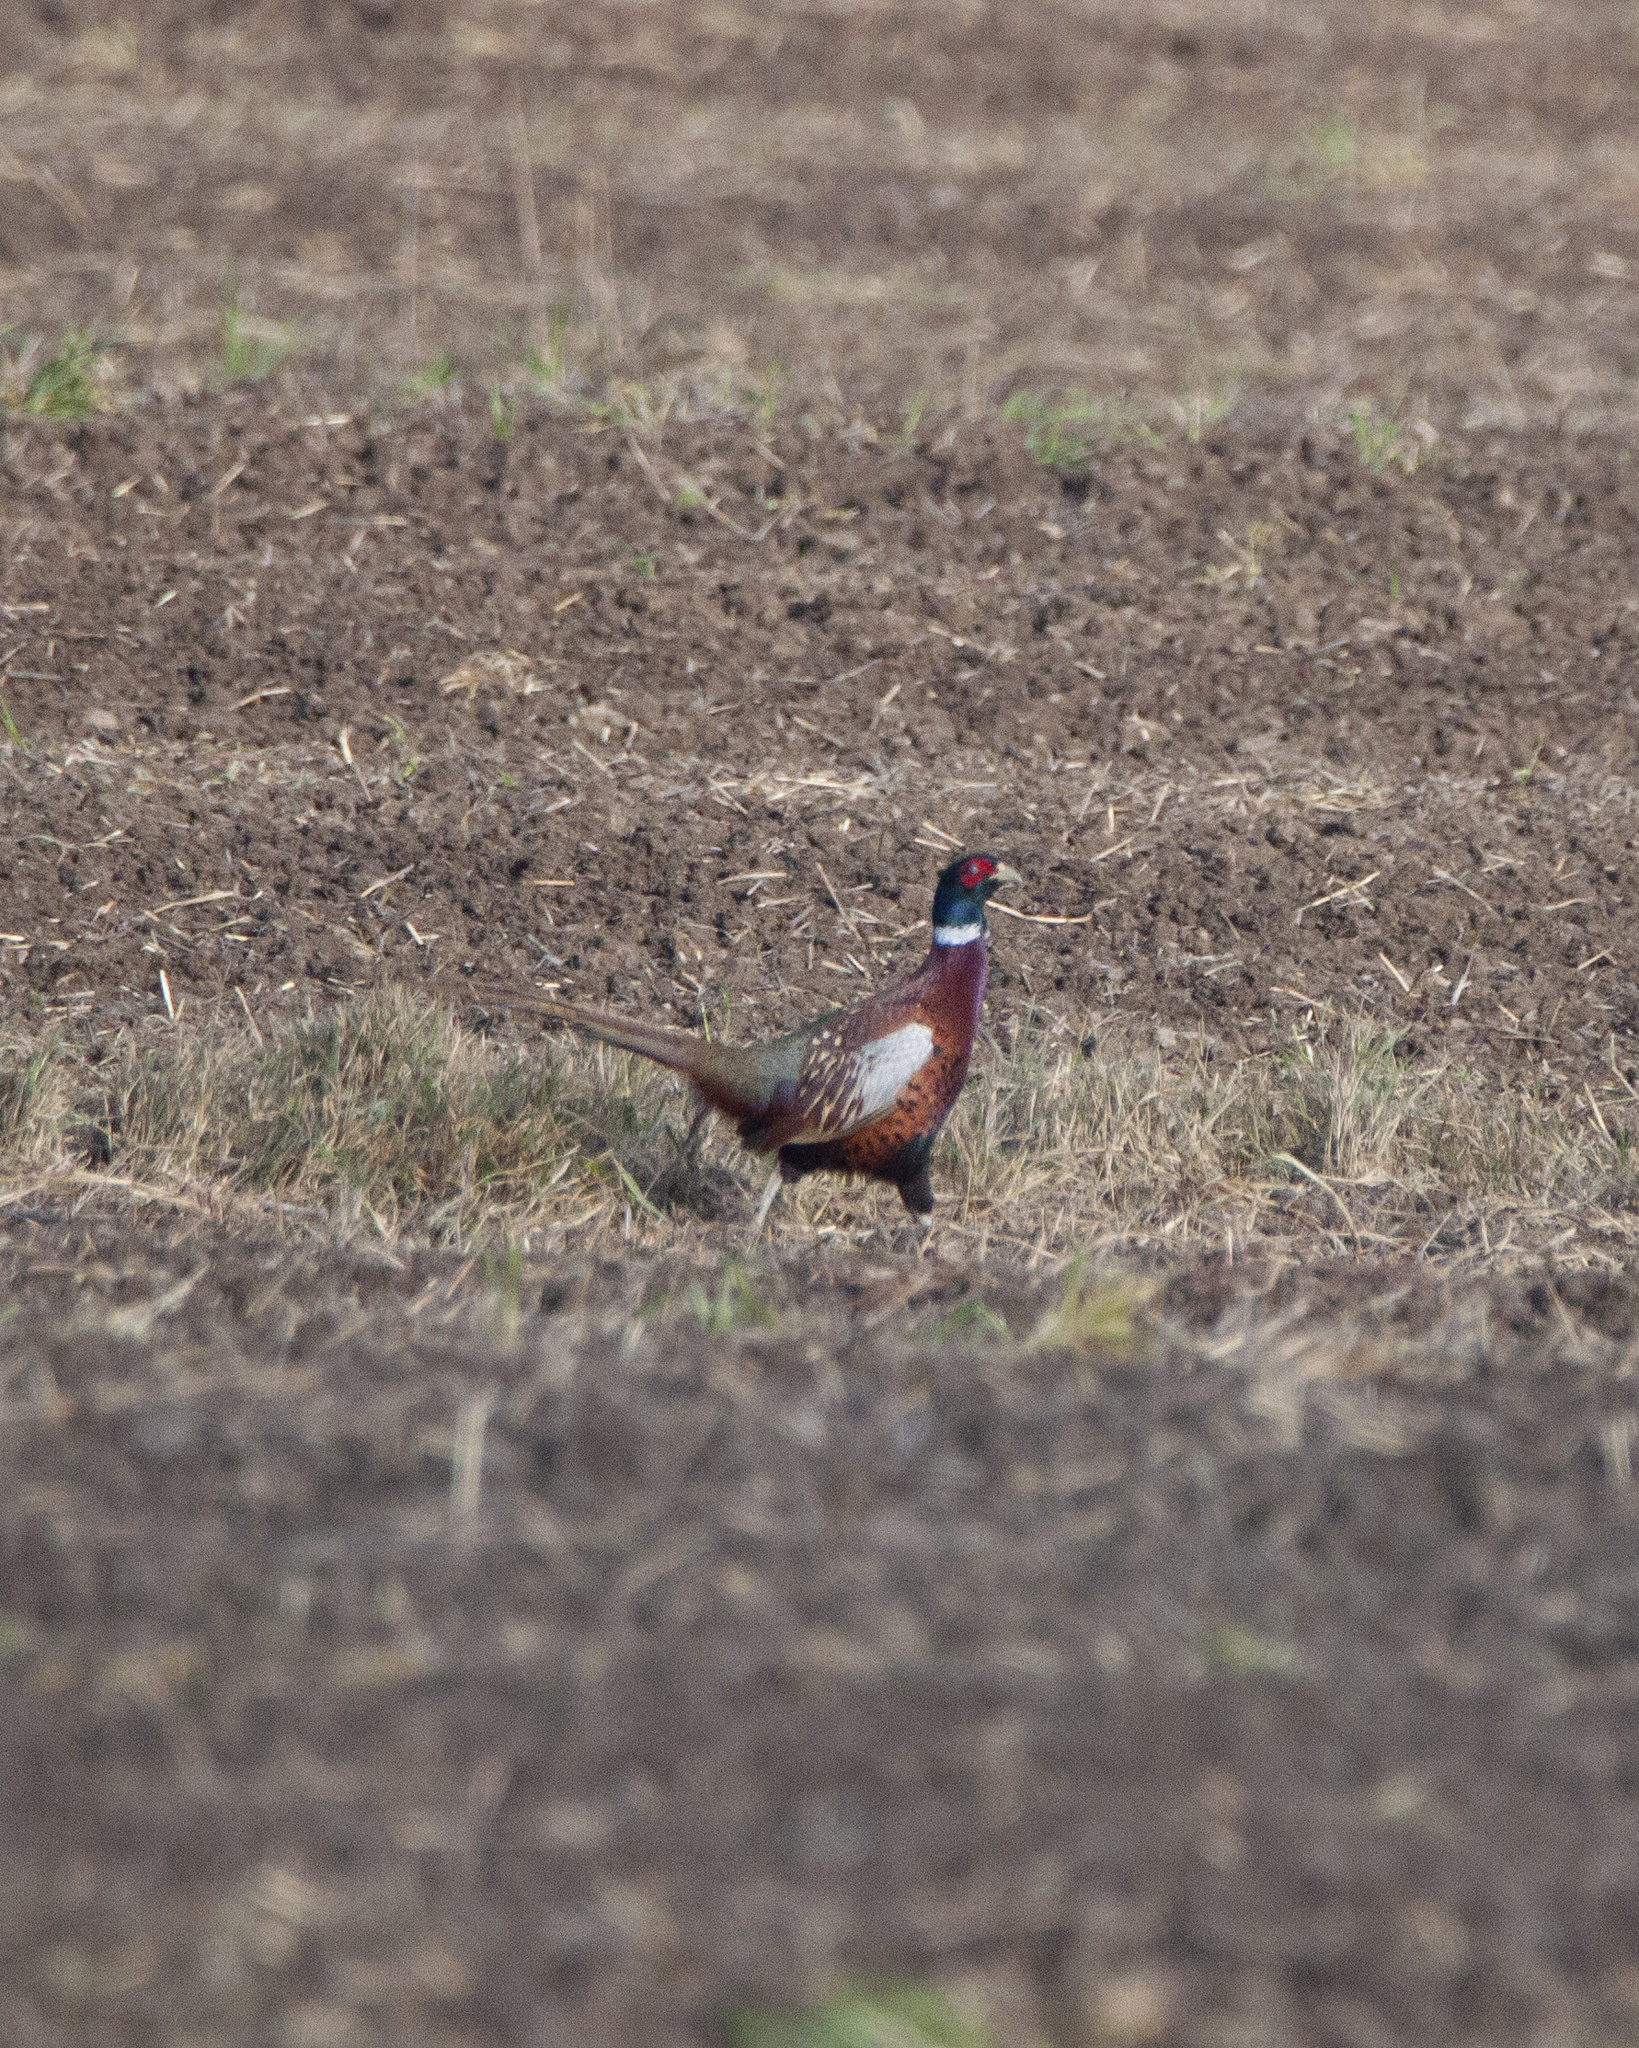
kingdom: Animalia
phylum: Chordata
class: Aves
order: Galliformes
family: Phasianidae
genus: Phasianus
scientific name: Phasianus colchicus
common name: Common pheasant
